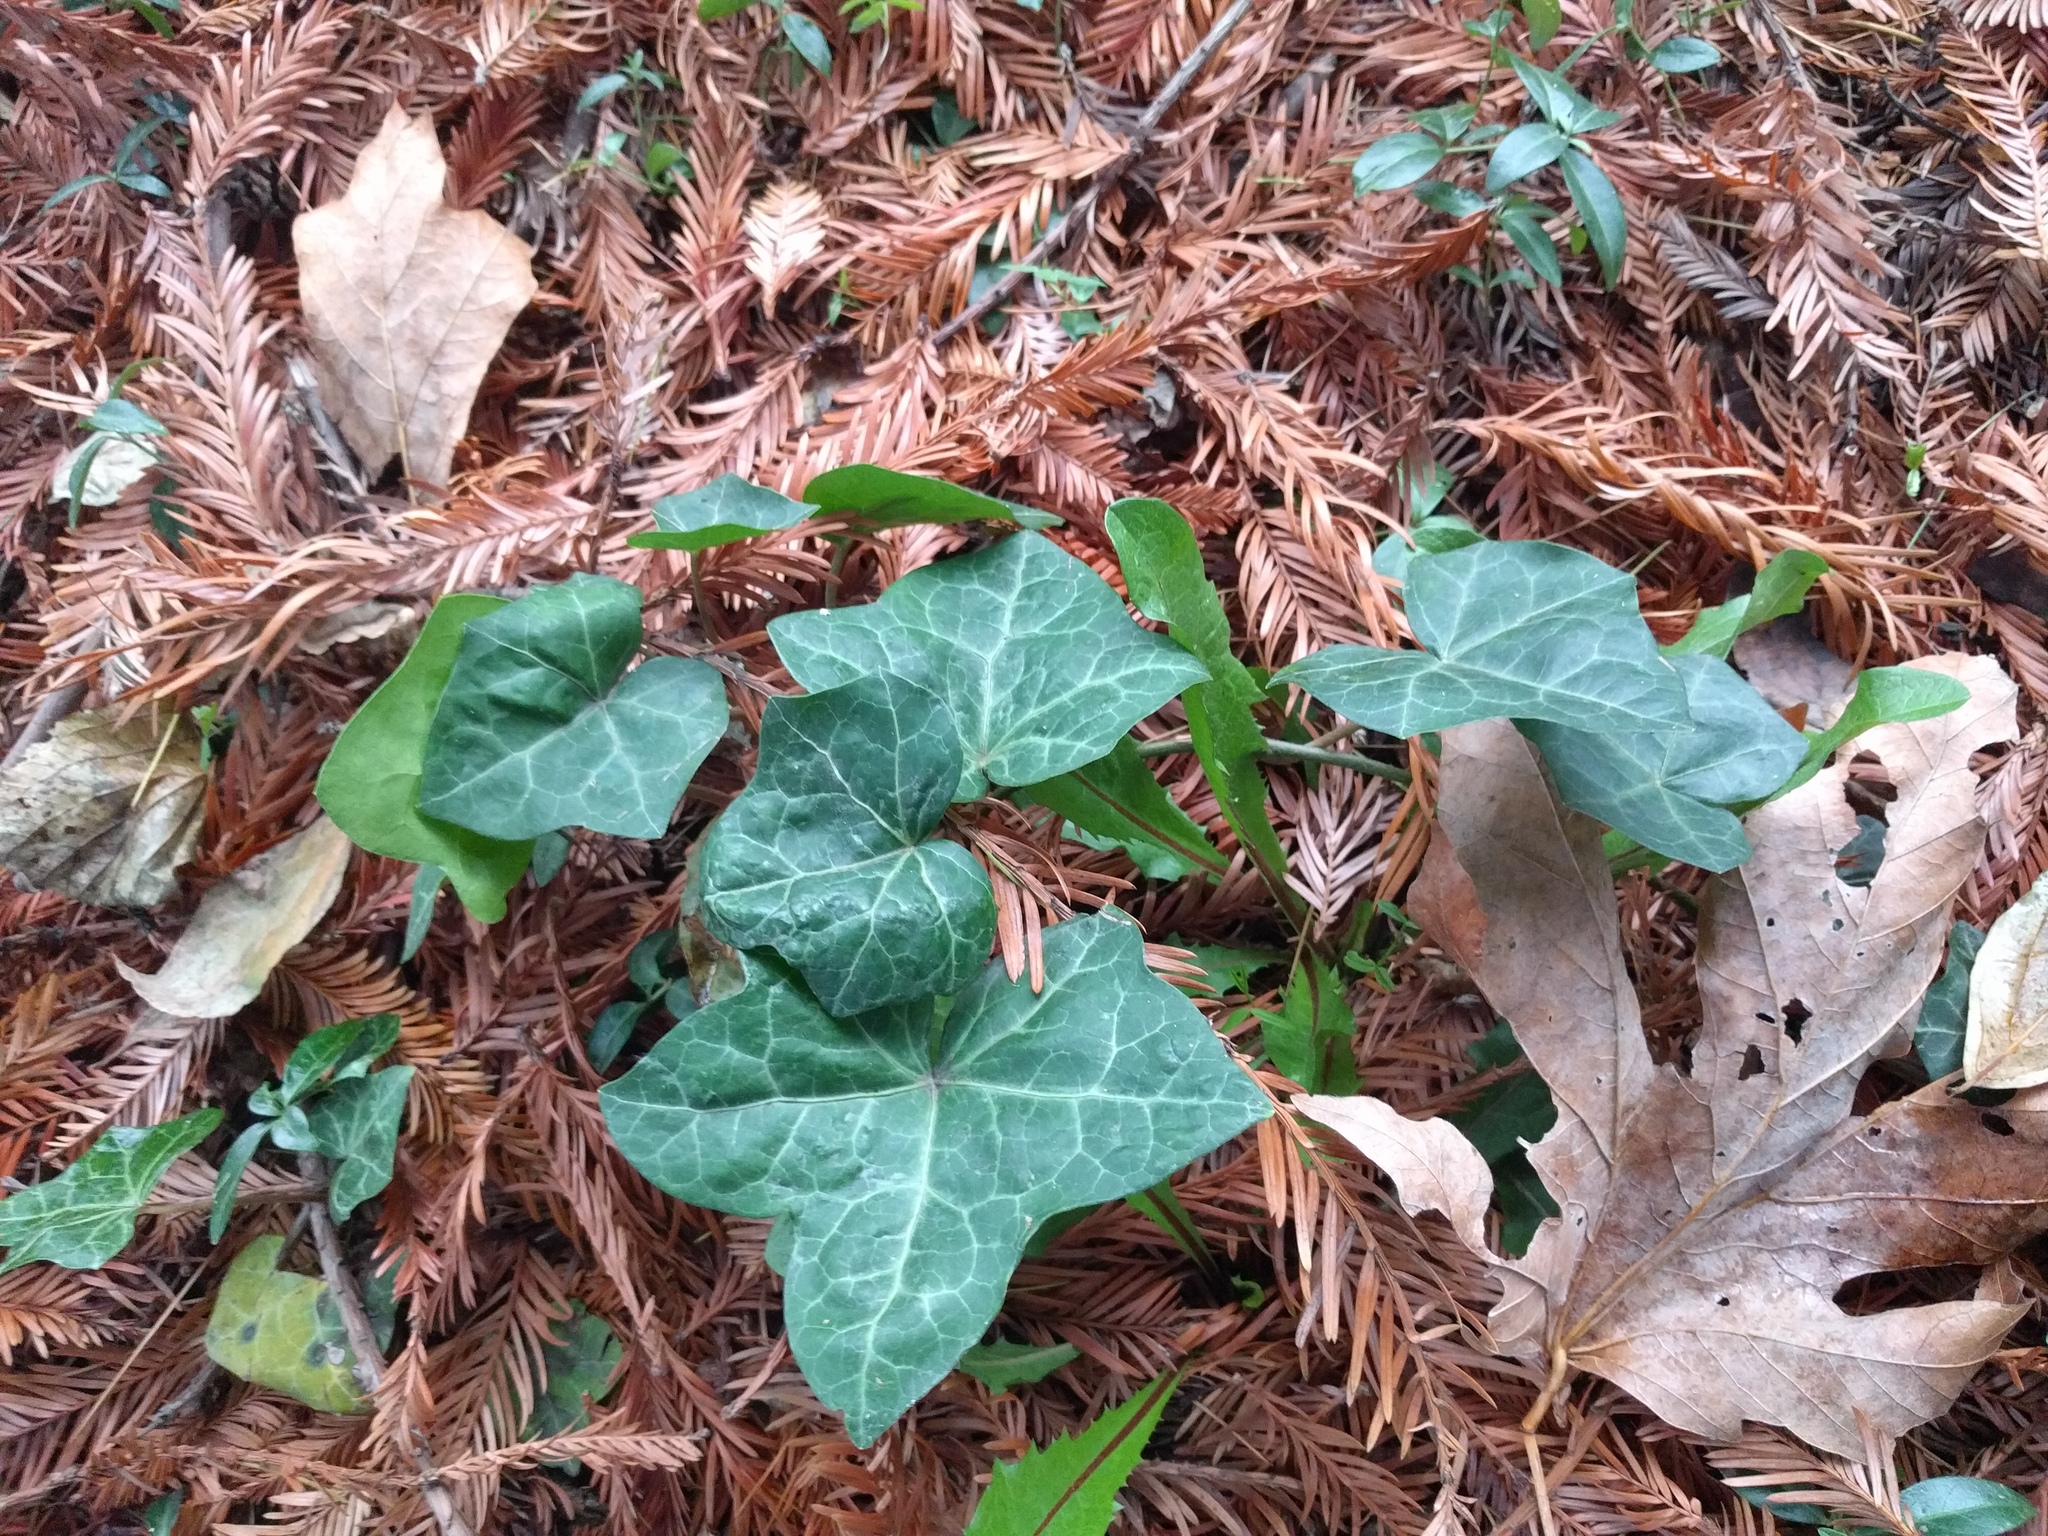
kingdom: Plantae
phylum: Tracheophyta
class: Magnoliopsida
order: Apiales
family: Araliaceae
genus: Hedera
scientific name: Hedera helix
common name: Ivy
